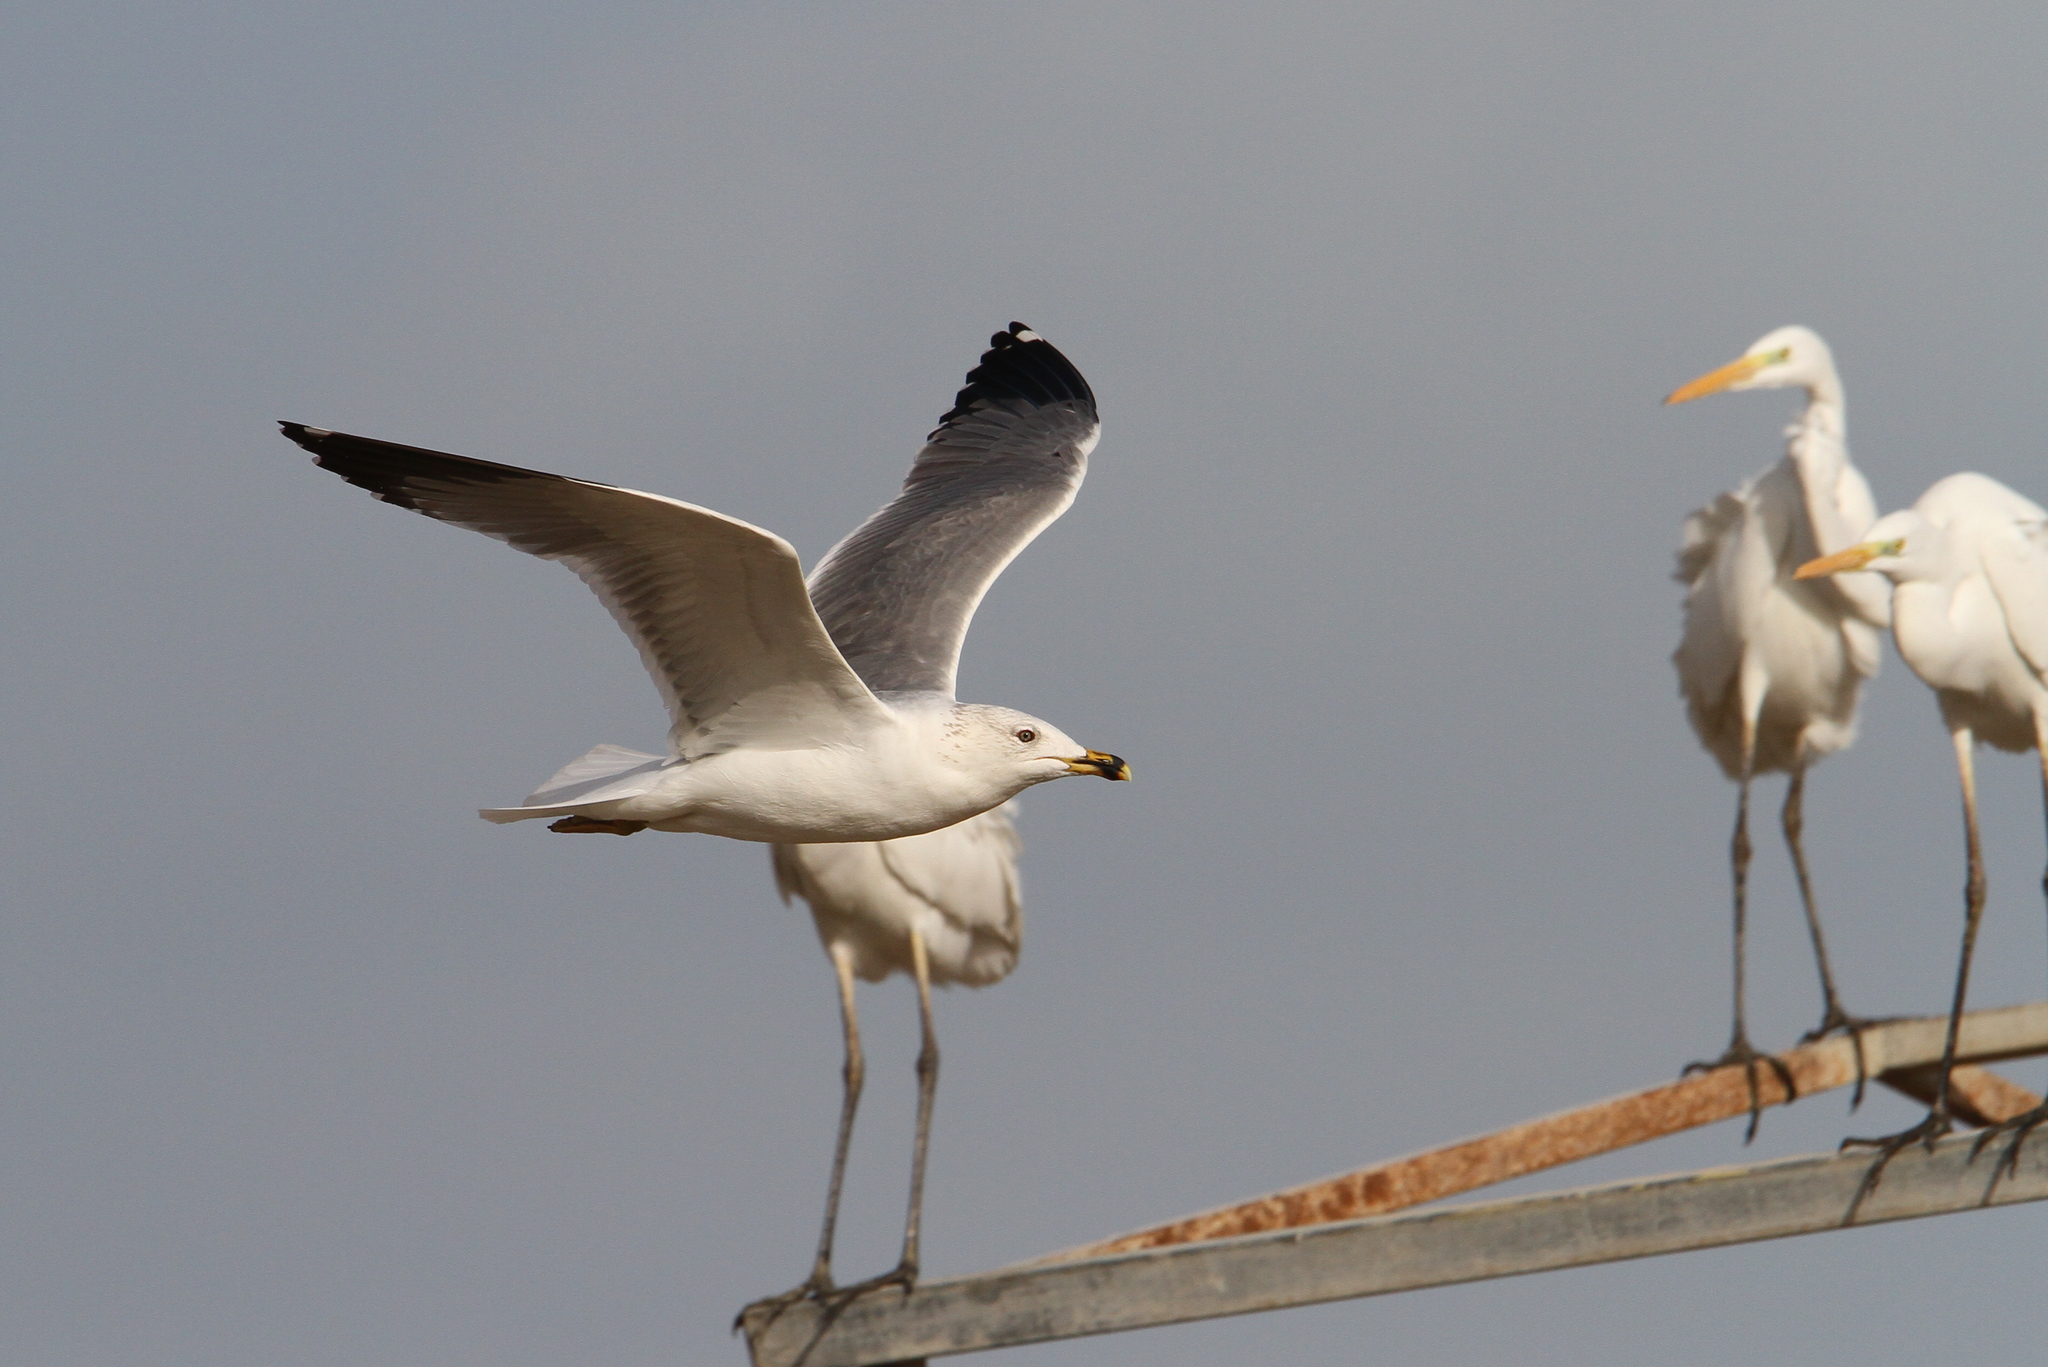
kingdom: Animalia
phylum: Chordata
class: Aves
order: Charadriiformes
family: Laridae
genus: Larus
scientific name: Larus armenicus
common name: Armenian gull
